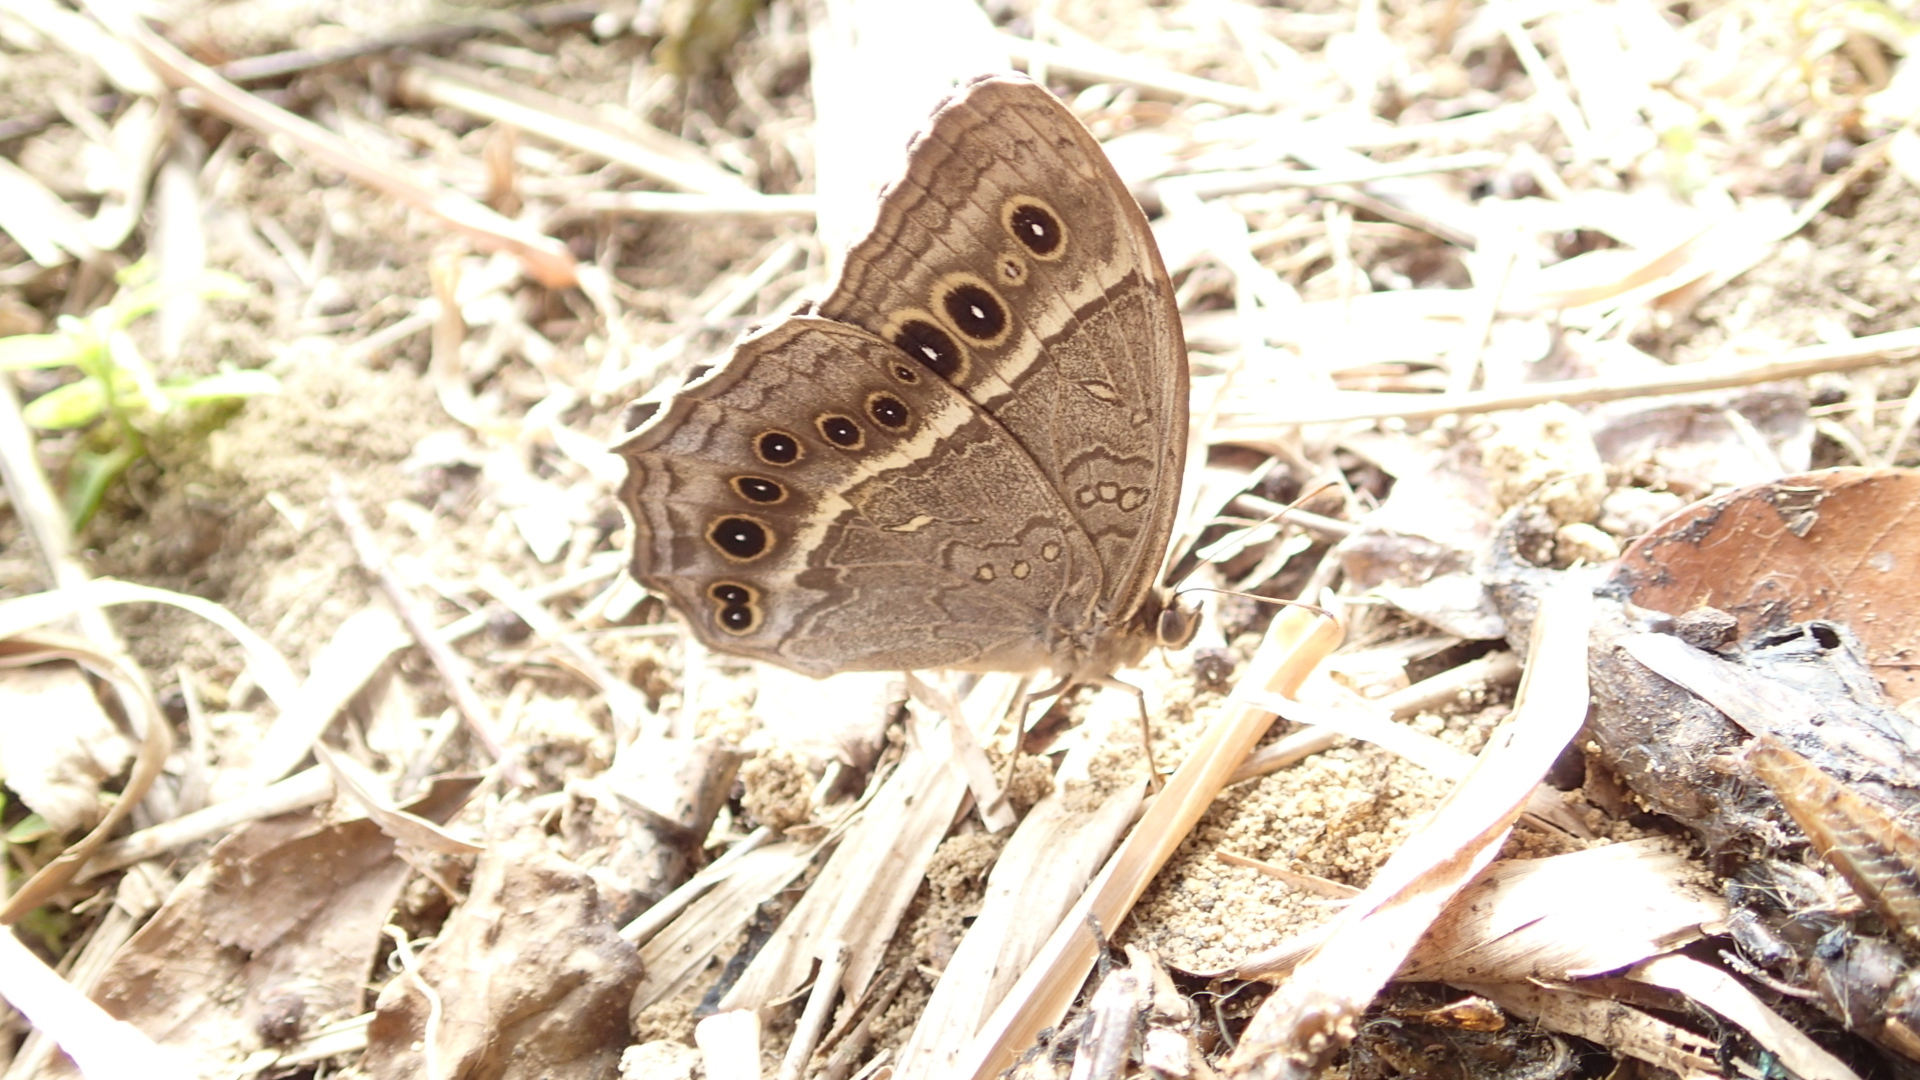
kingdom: Animalia
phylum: Arthropoda
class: Insecta
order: Lepidoptera
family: Nymphalidae
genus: Neope
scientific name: Neope muirheadii
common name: Black-spotted labyrinth
